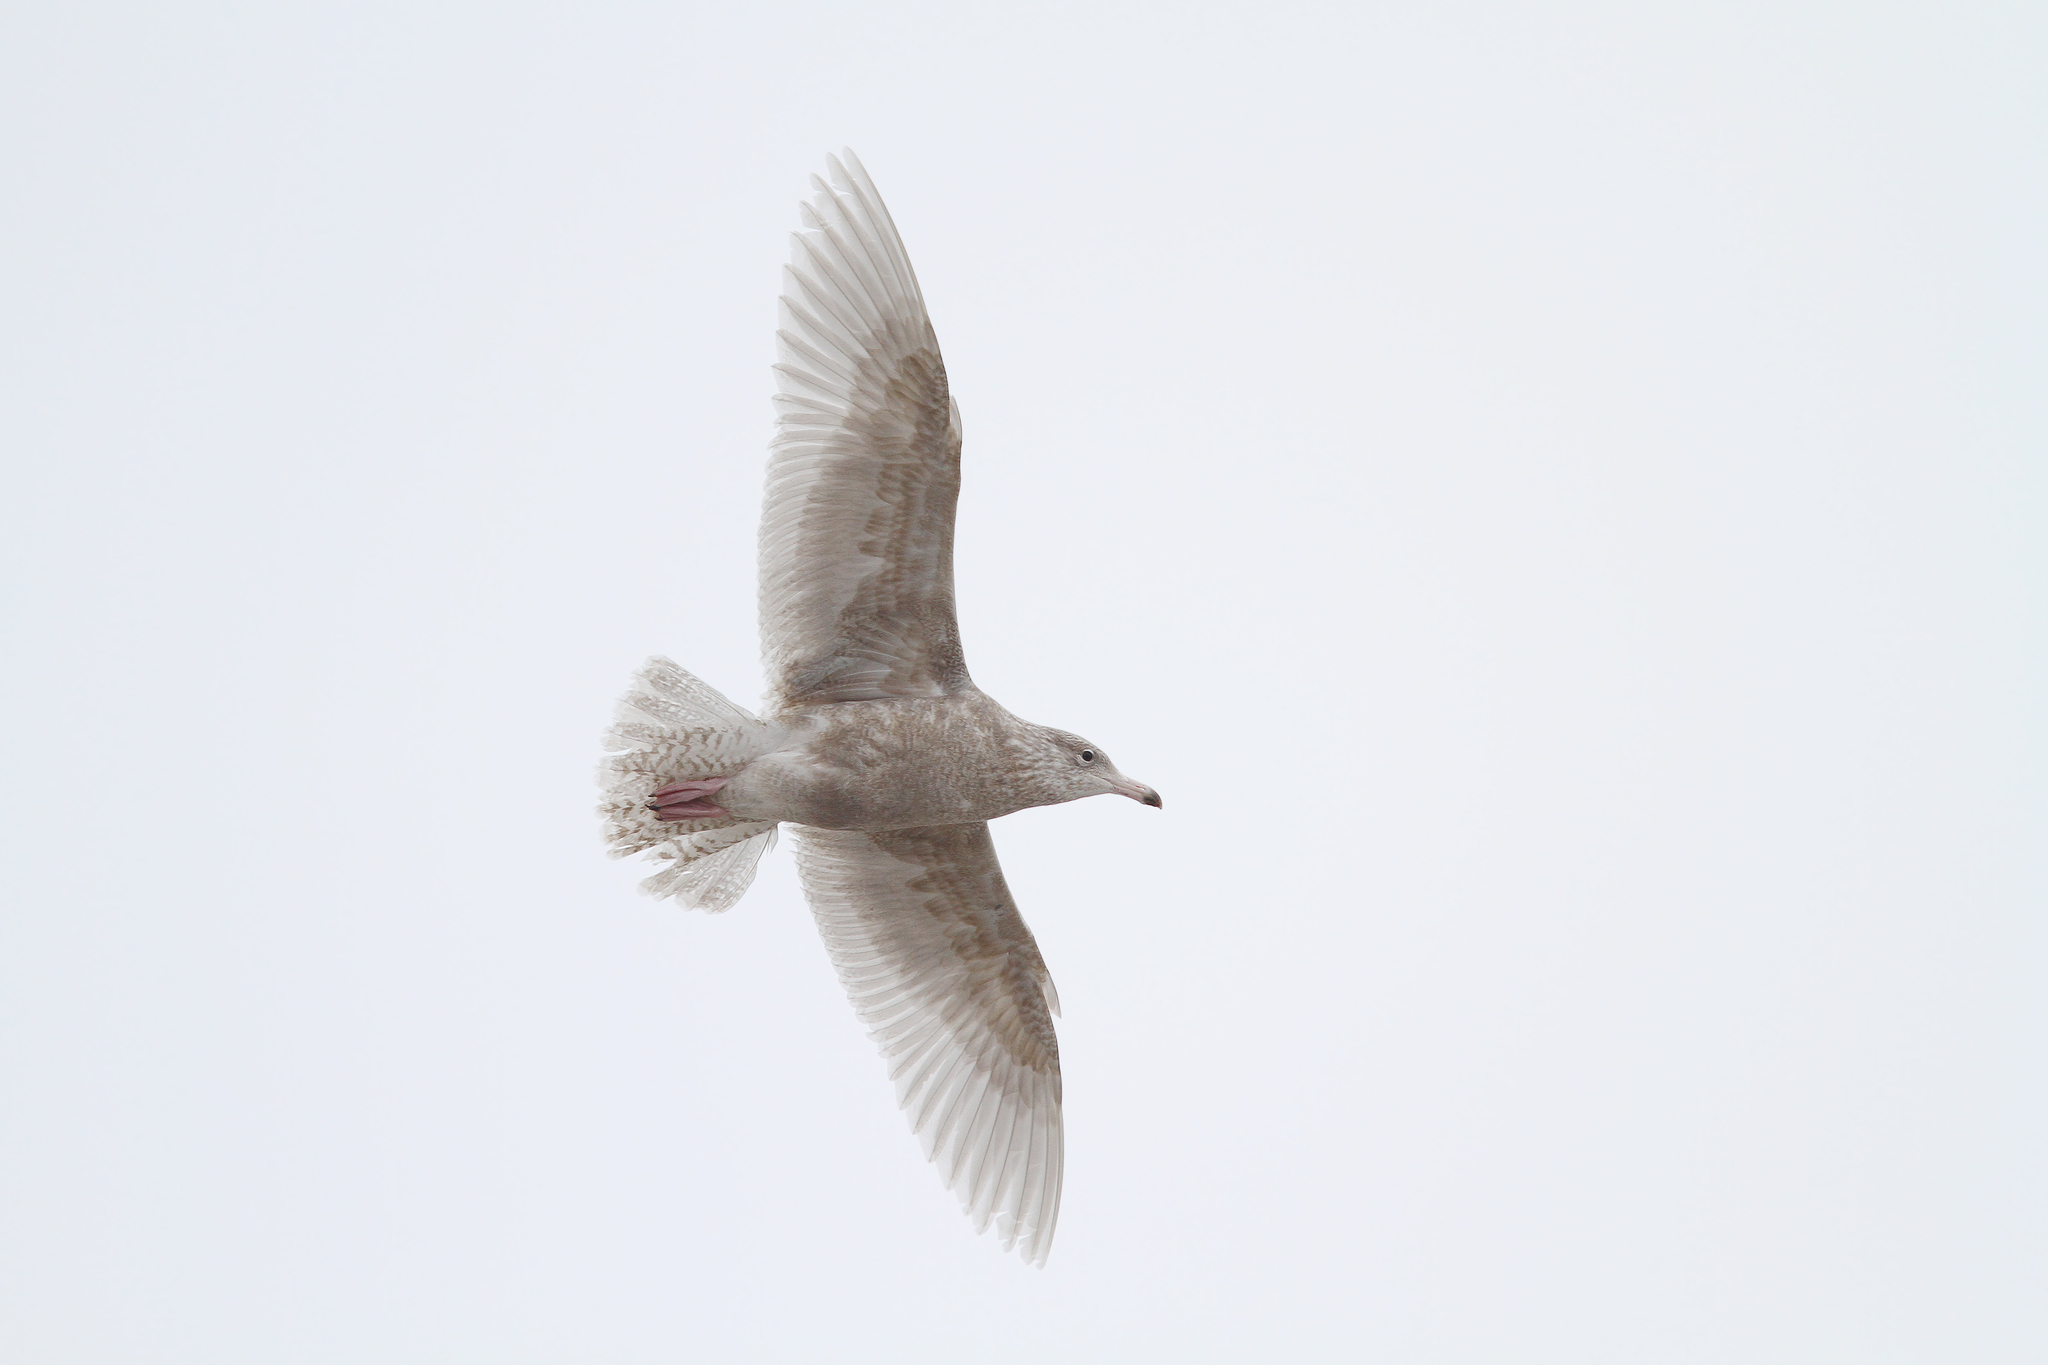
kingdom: Animalia
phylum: Chordata
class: Aves
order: Charadriiformes
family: Laridae
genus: Larus
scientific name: Larus hyperboreus
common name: Glaucous gull
